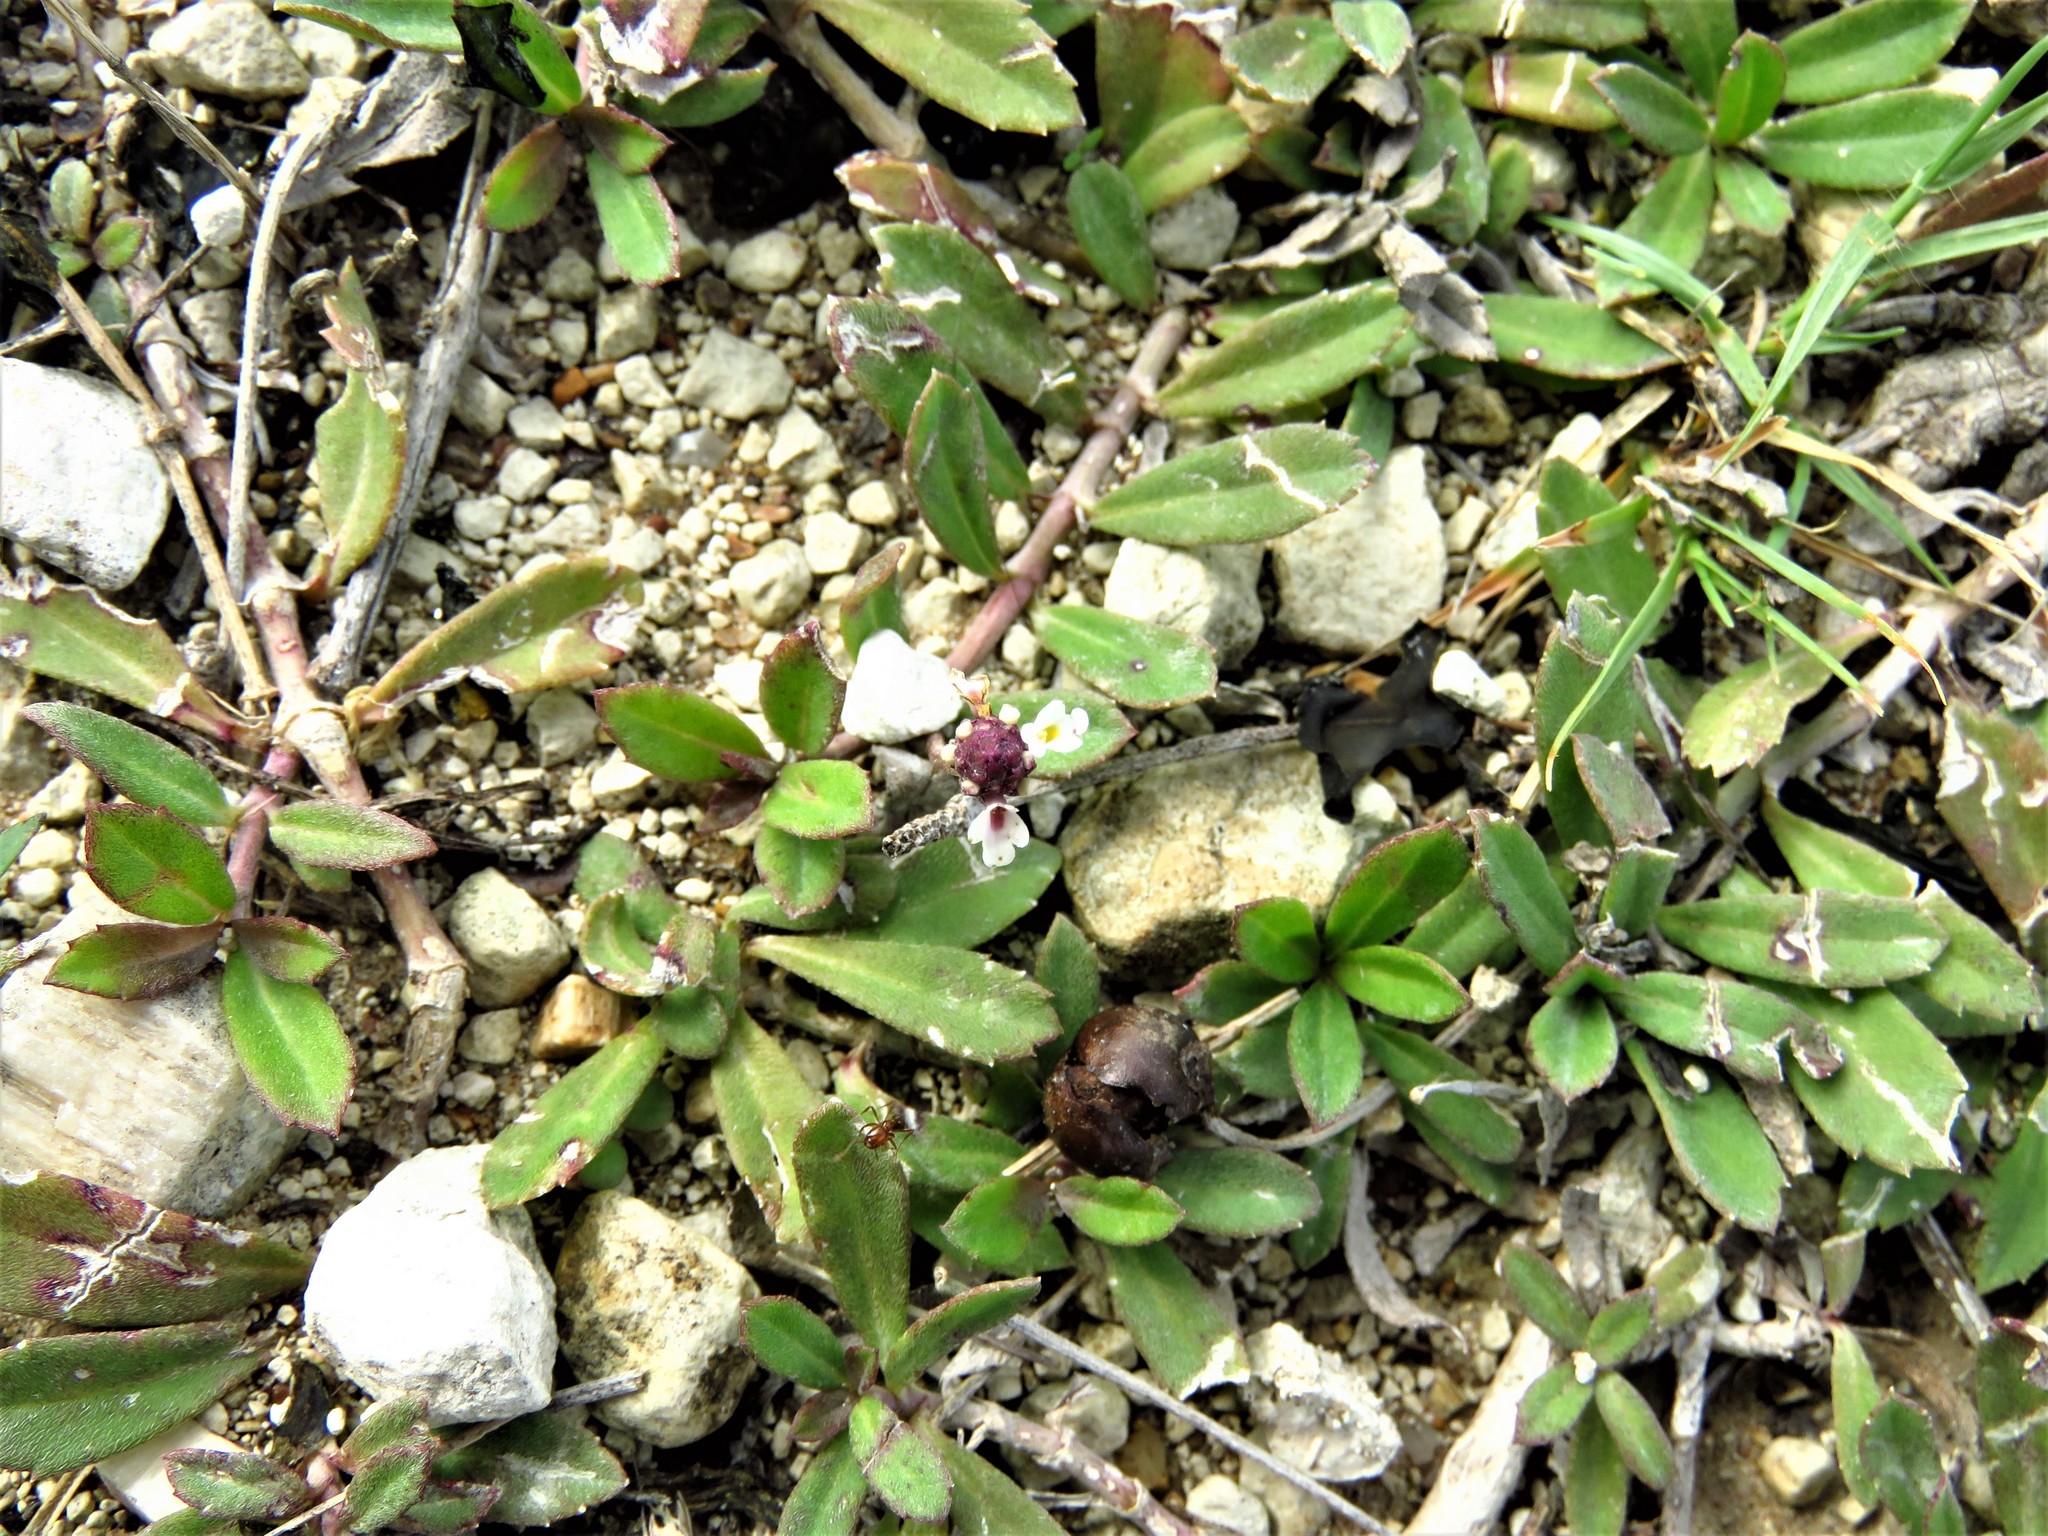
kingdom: Plantae
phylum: Tracheophyta
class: Magnoliopsida
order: Lamiales
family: Verbenaceae
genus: Phyla
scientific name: Phyla nodiflora
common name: Frogfruit
